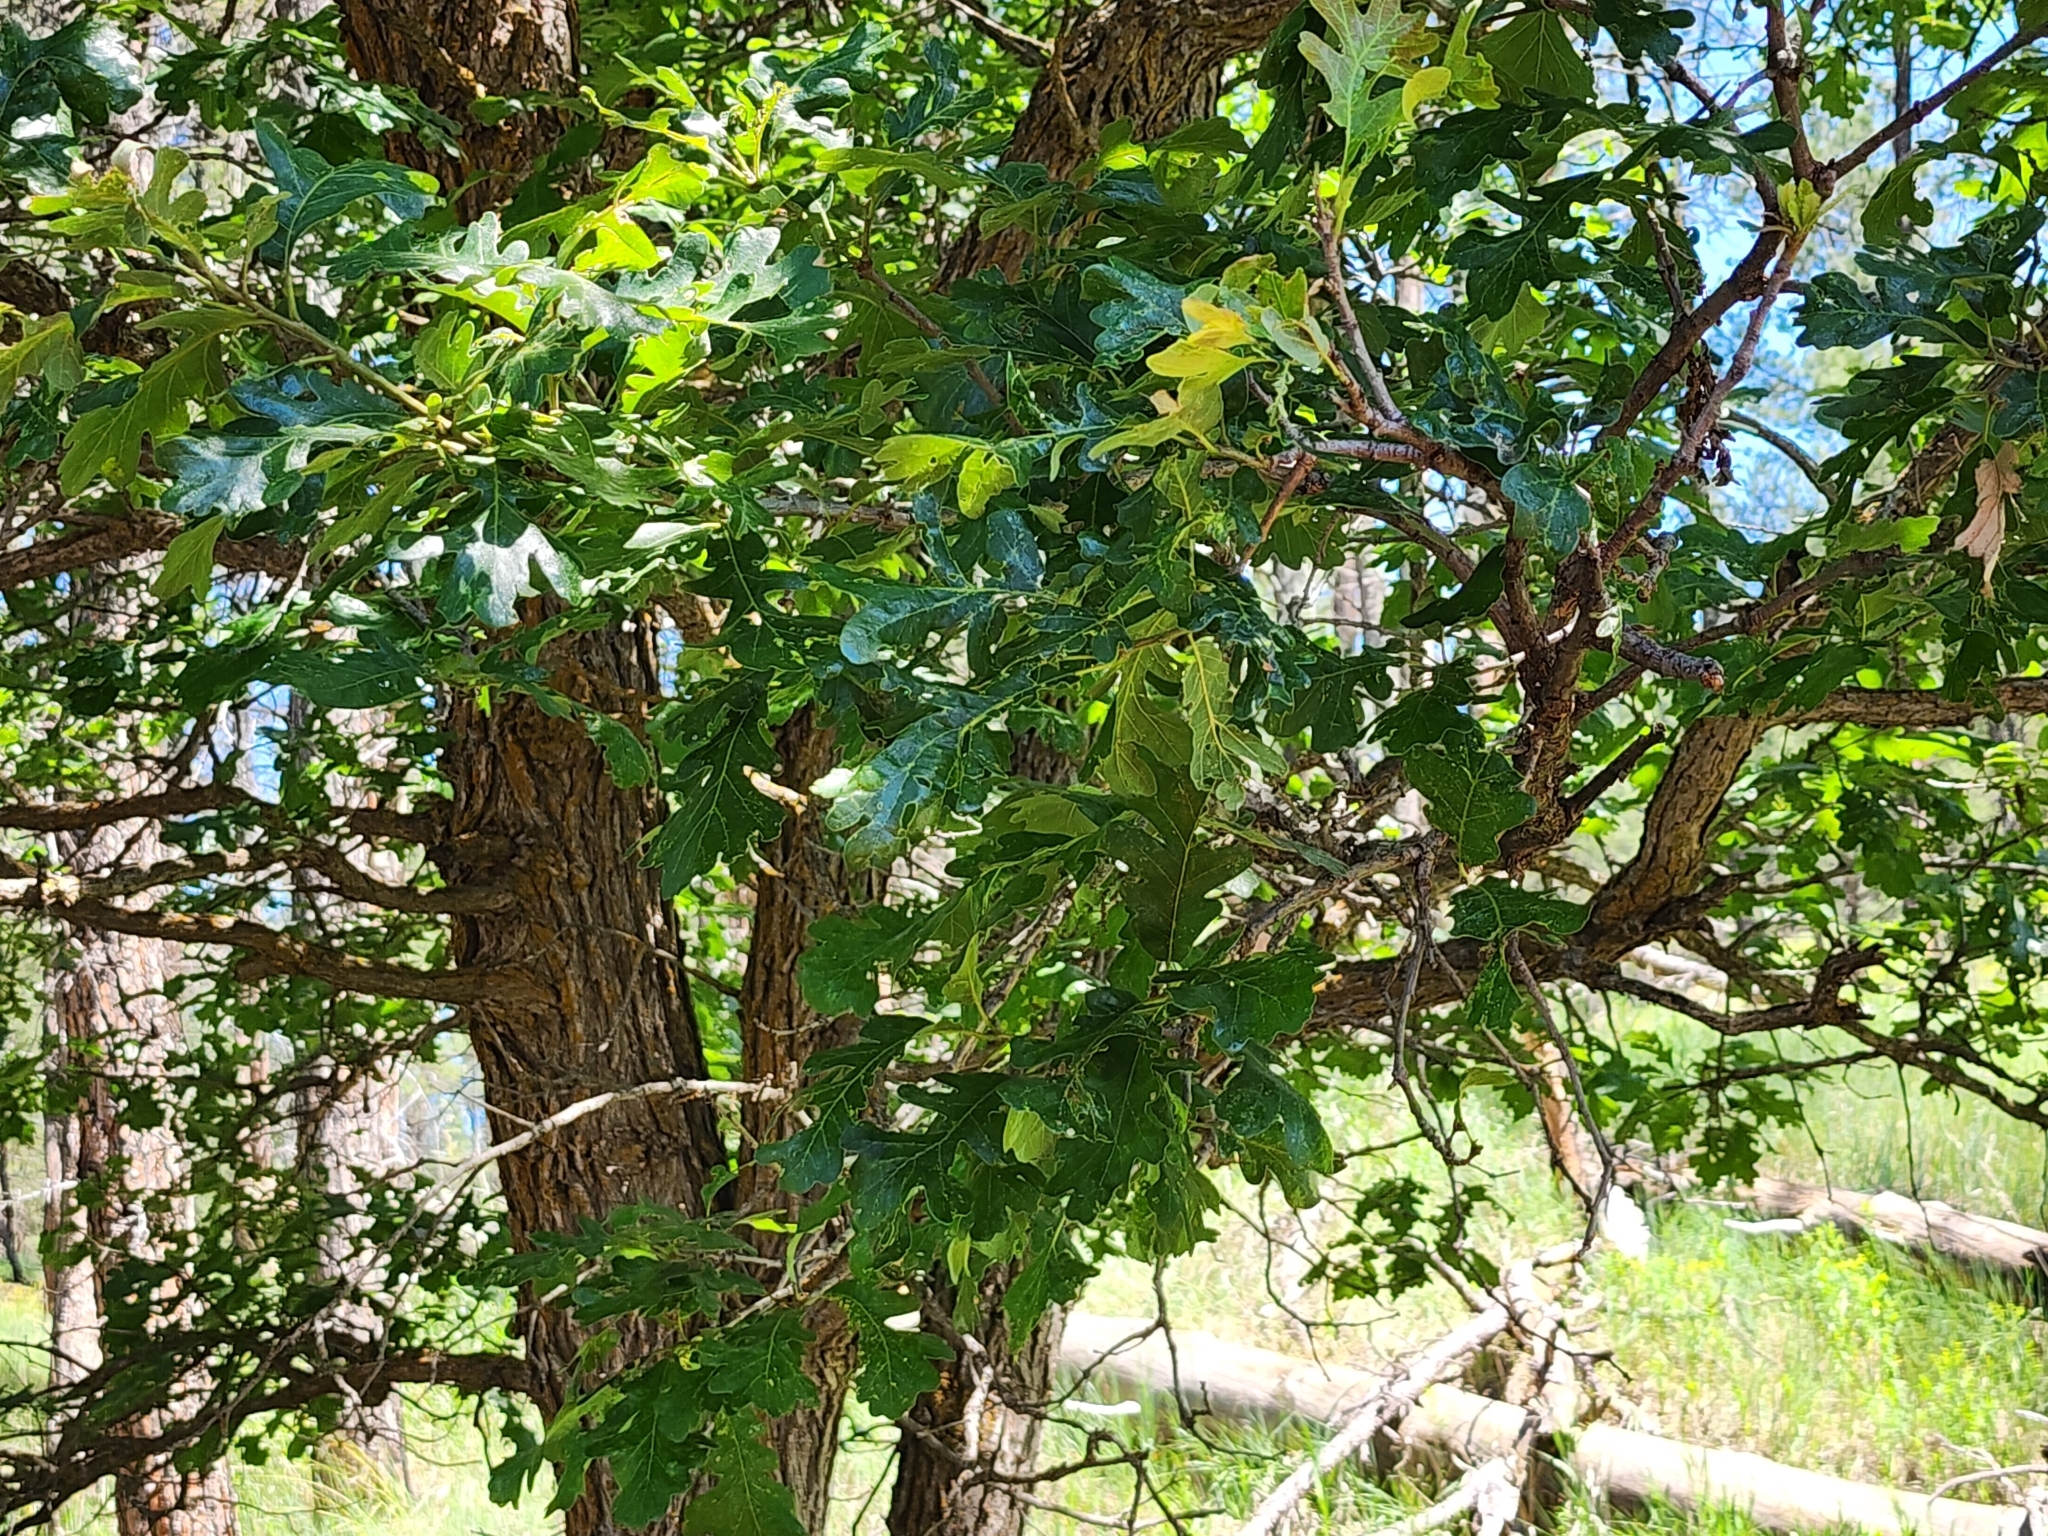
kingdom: Plantae
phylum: Tracheophyta
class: Magnoliopsida
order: Fagales
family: Fagaceae
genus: Quercus
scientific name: Quercus macrocarpa
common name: Bur oak
